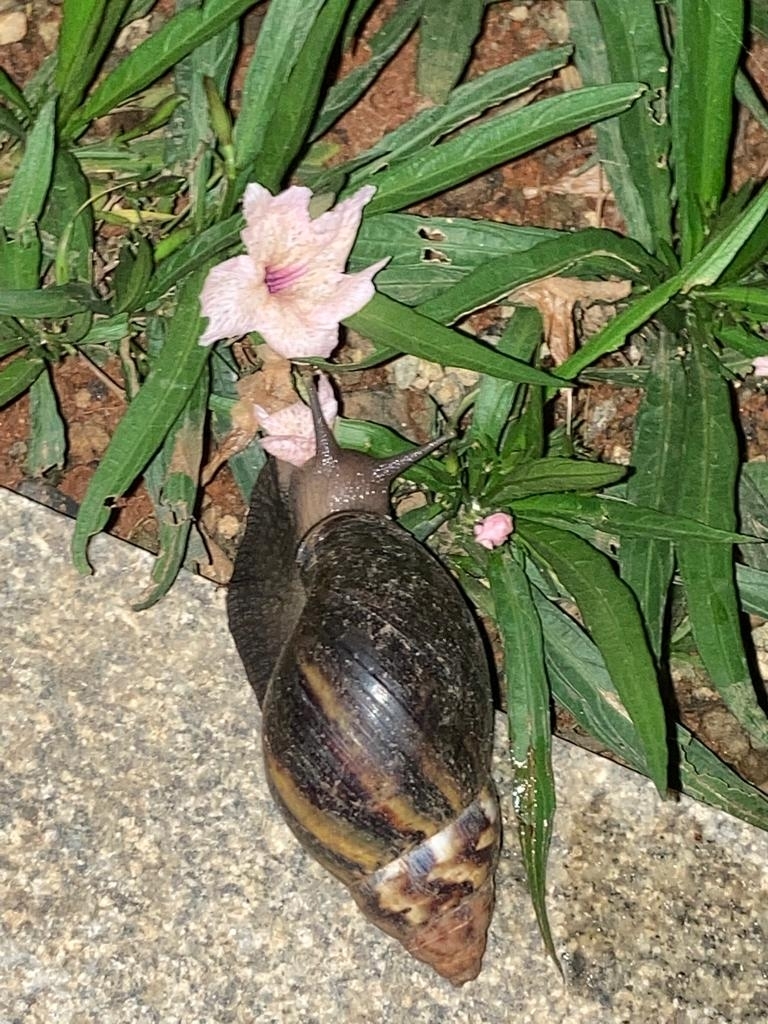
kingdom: Animalia
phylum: Mollusca
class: Gastropoda
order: Stylommatophora
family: Achatinidae
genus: Lissachatina
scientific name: Lissachatina fulica
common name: Giant african snail
